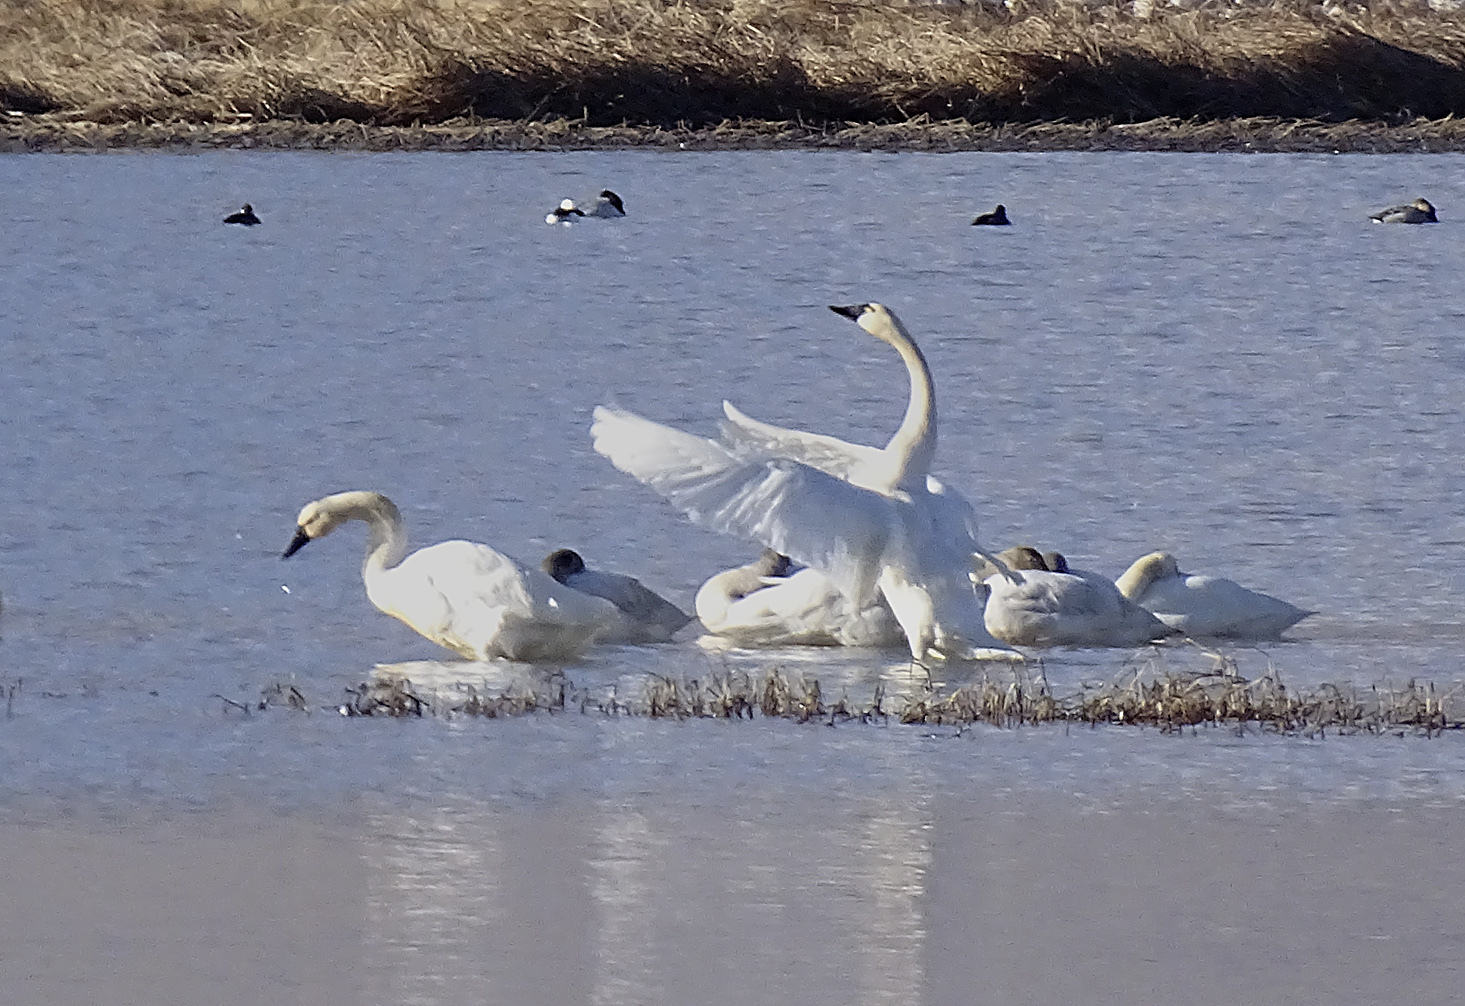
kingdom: Animalia
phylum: Chordata
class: Aves
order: Anseriformes
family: Anatidae
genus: Cygnus
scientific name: Cygnus columbianus
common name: Tundra swan
